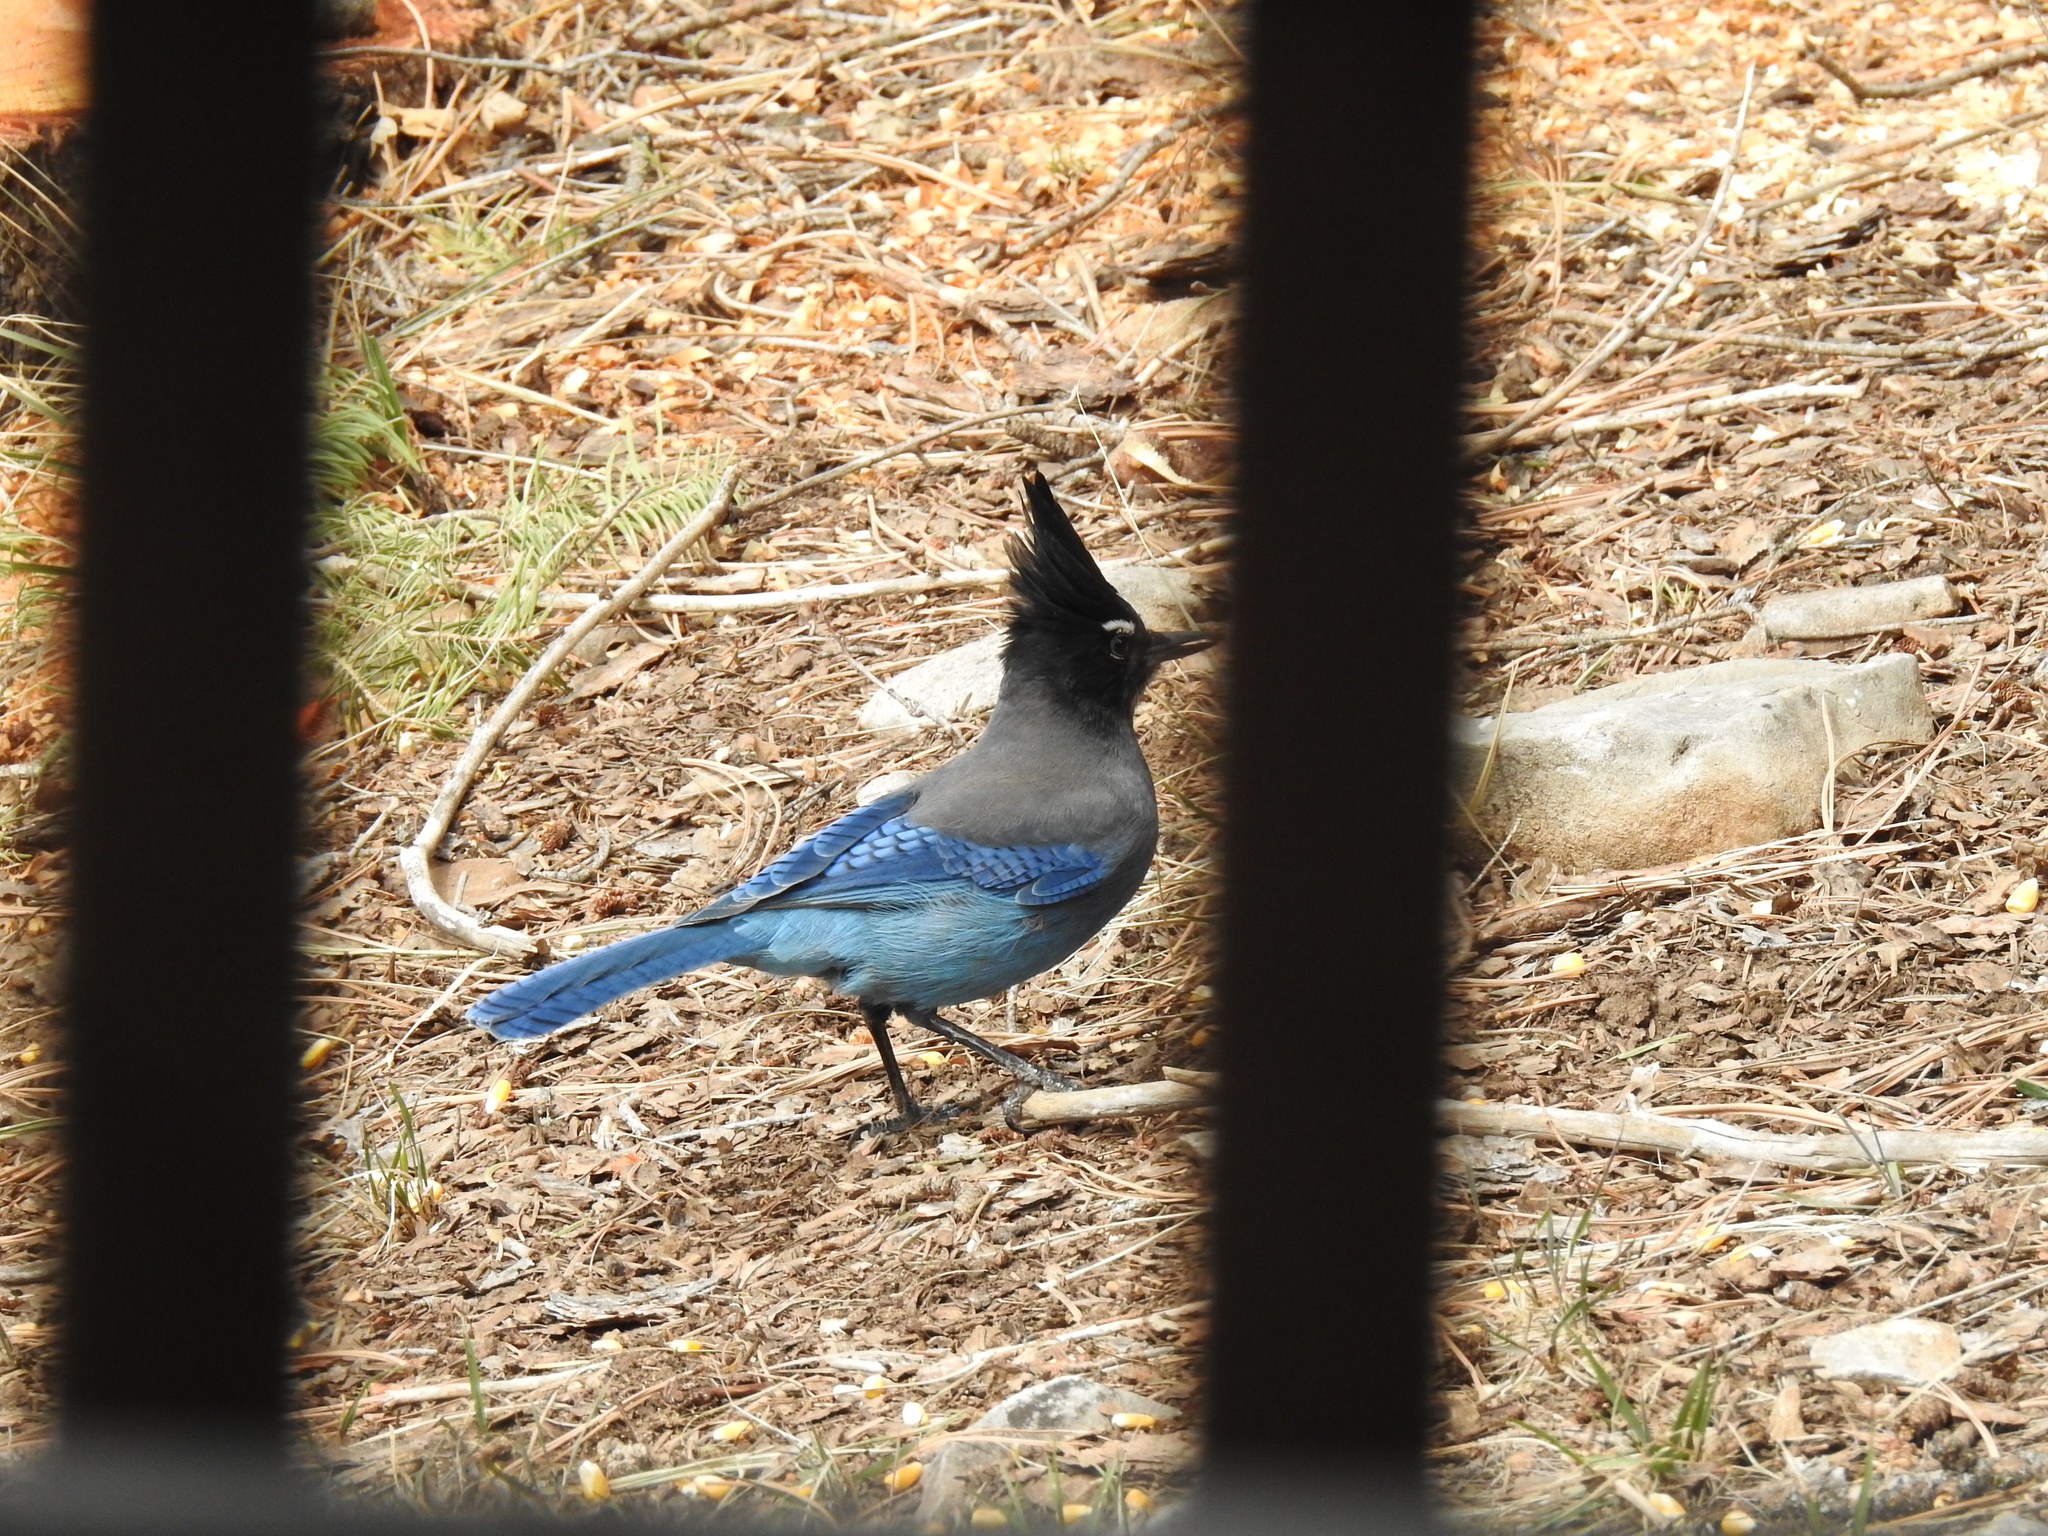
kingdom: Animalia
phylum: Chordata
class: Aves
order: Passeriformes
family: Corvidae
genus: Cyanocitta
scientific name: Cyanocitta stelleri
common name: Steller's jay
